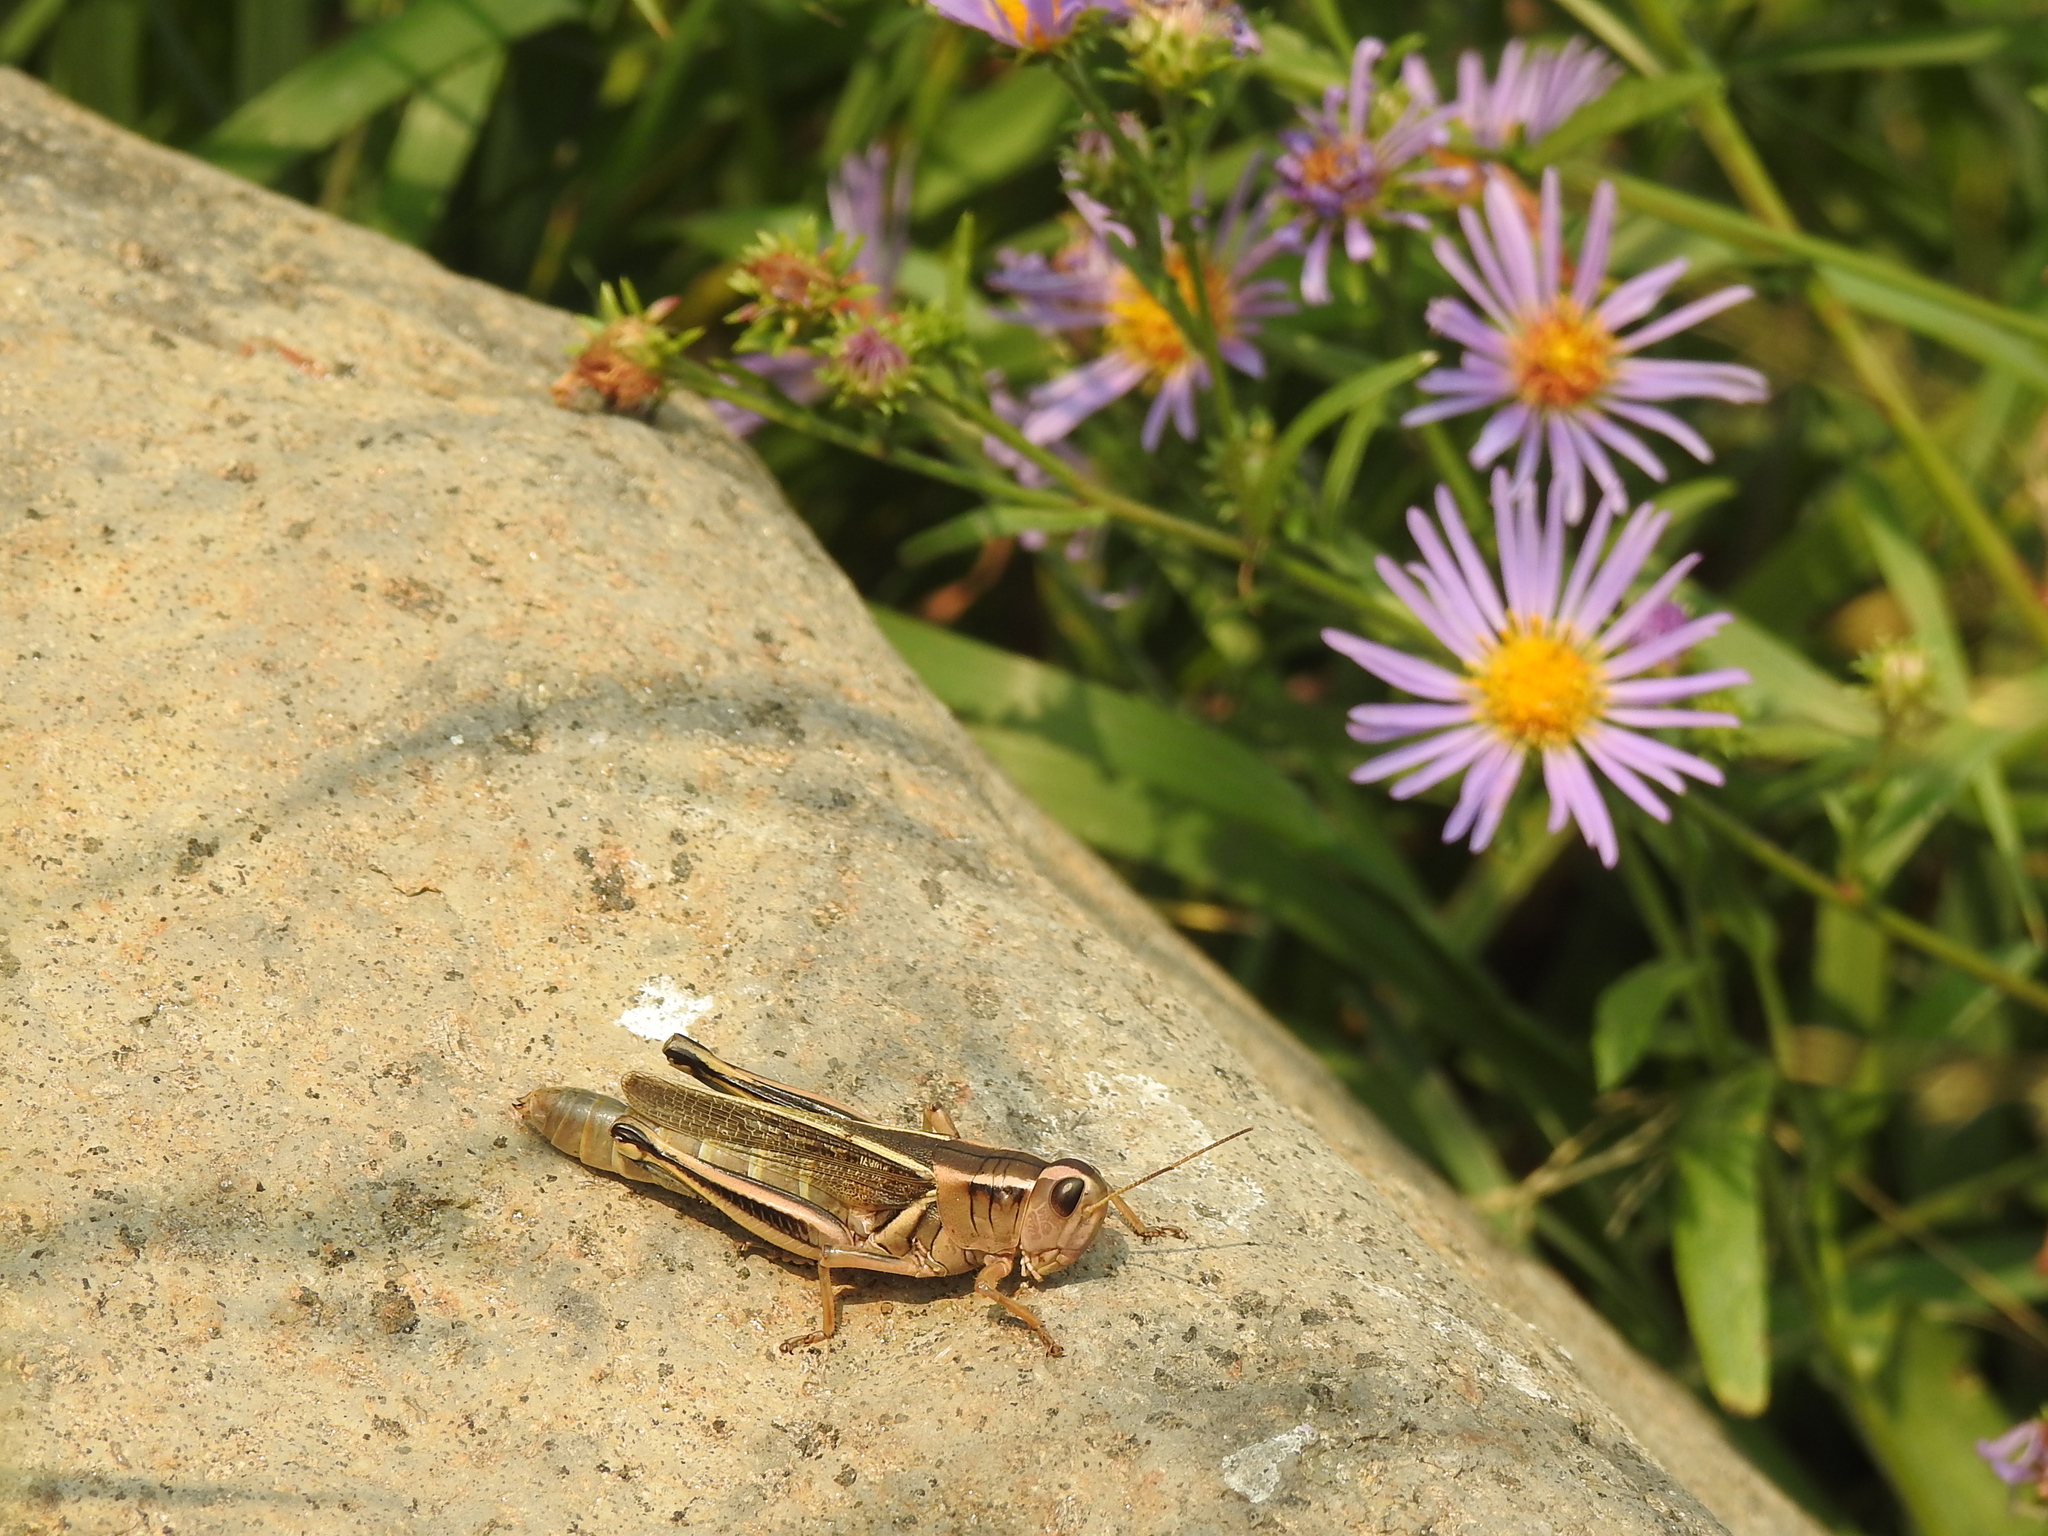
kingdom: Animalia
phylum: Arthropoda
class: Insecta
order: Orthoptera
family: Acrididae
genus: Melanoplus
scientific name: Melanoplus bivittatus
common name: Two-striped grasshopper
